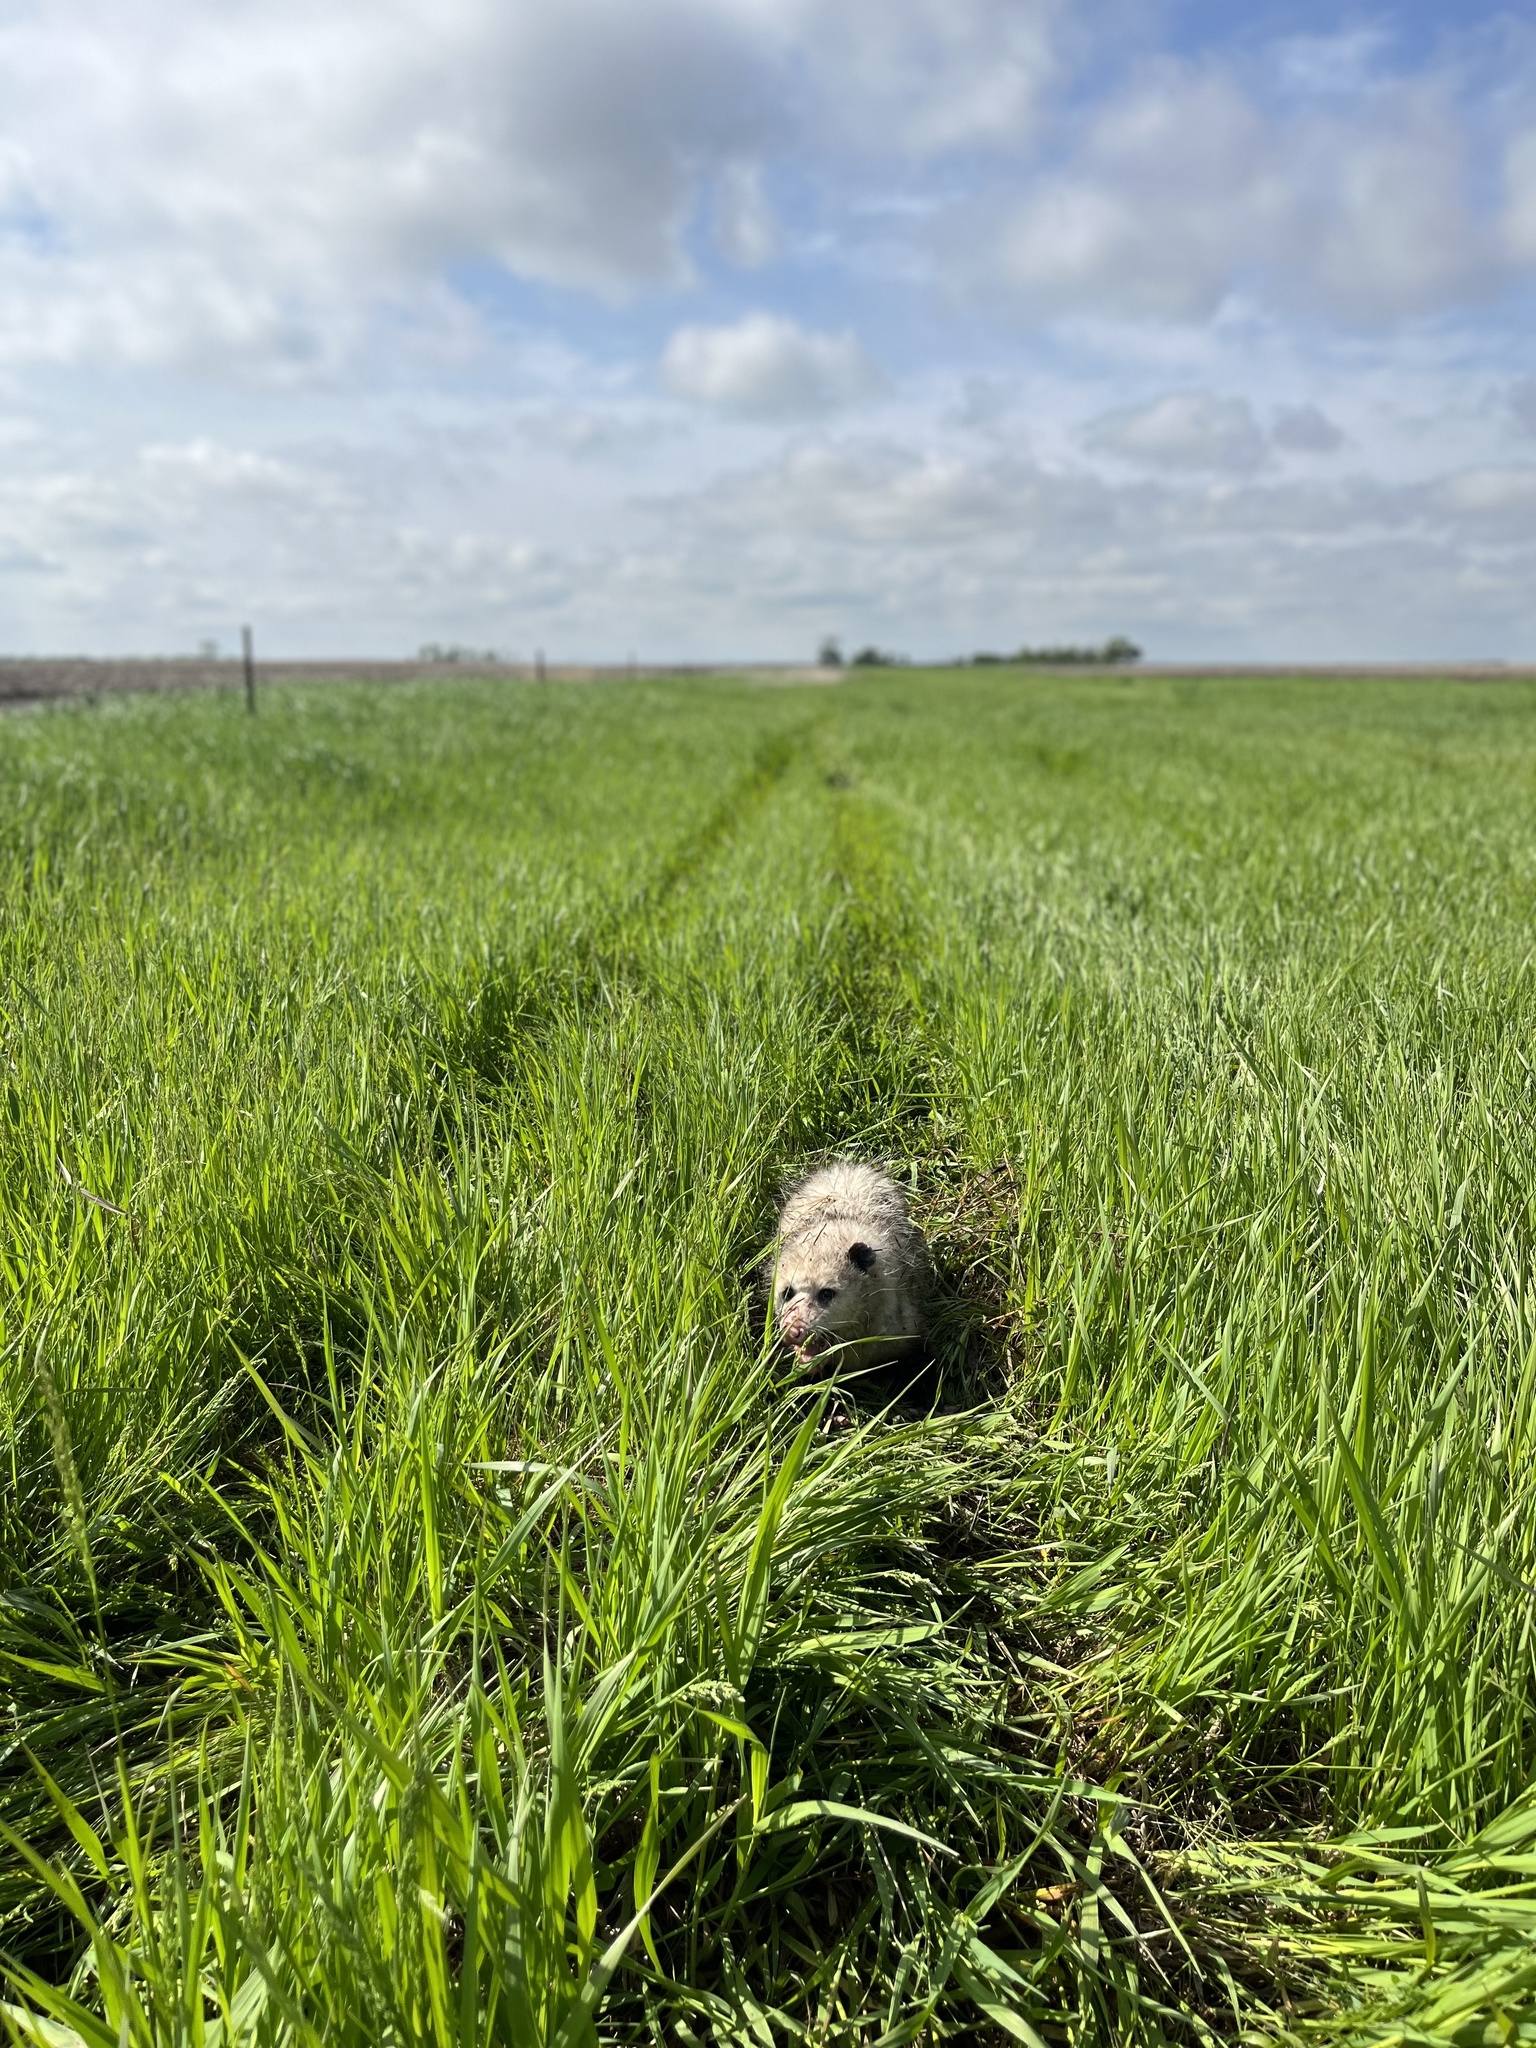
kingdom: Animalia
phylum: Chordata
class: Mammalia
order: Didelphimorphia
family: Didelphidae
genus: Didelphis
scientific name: Didelphis virginiana
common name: Virginia opossum
